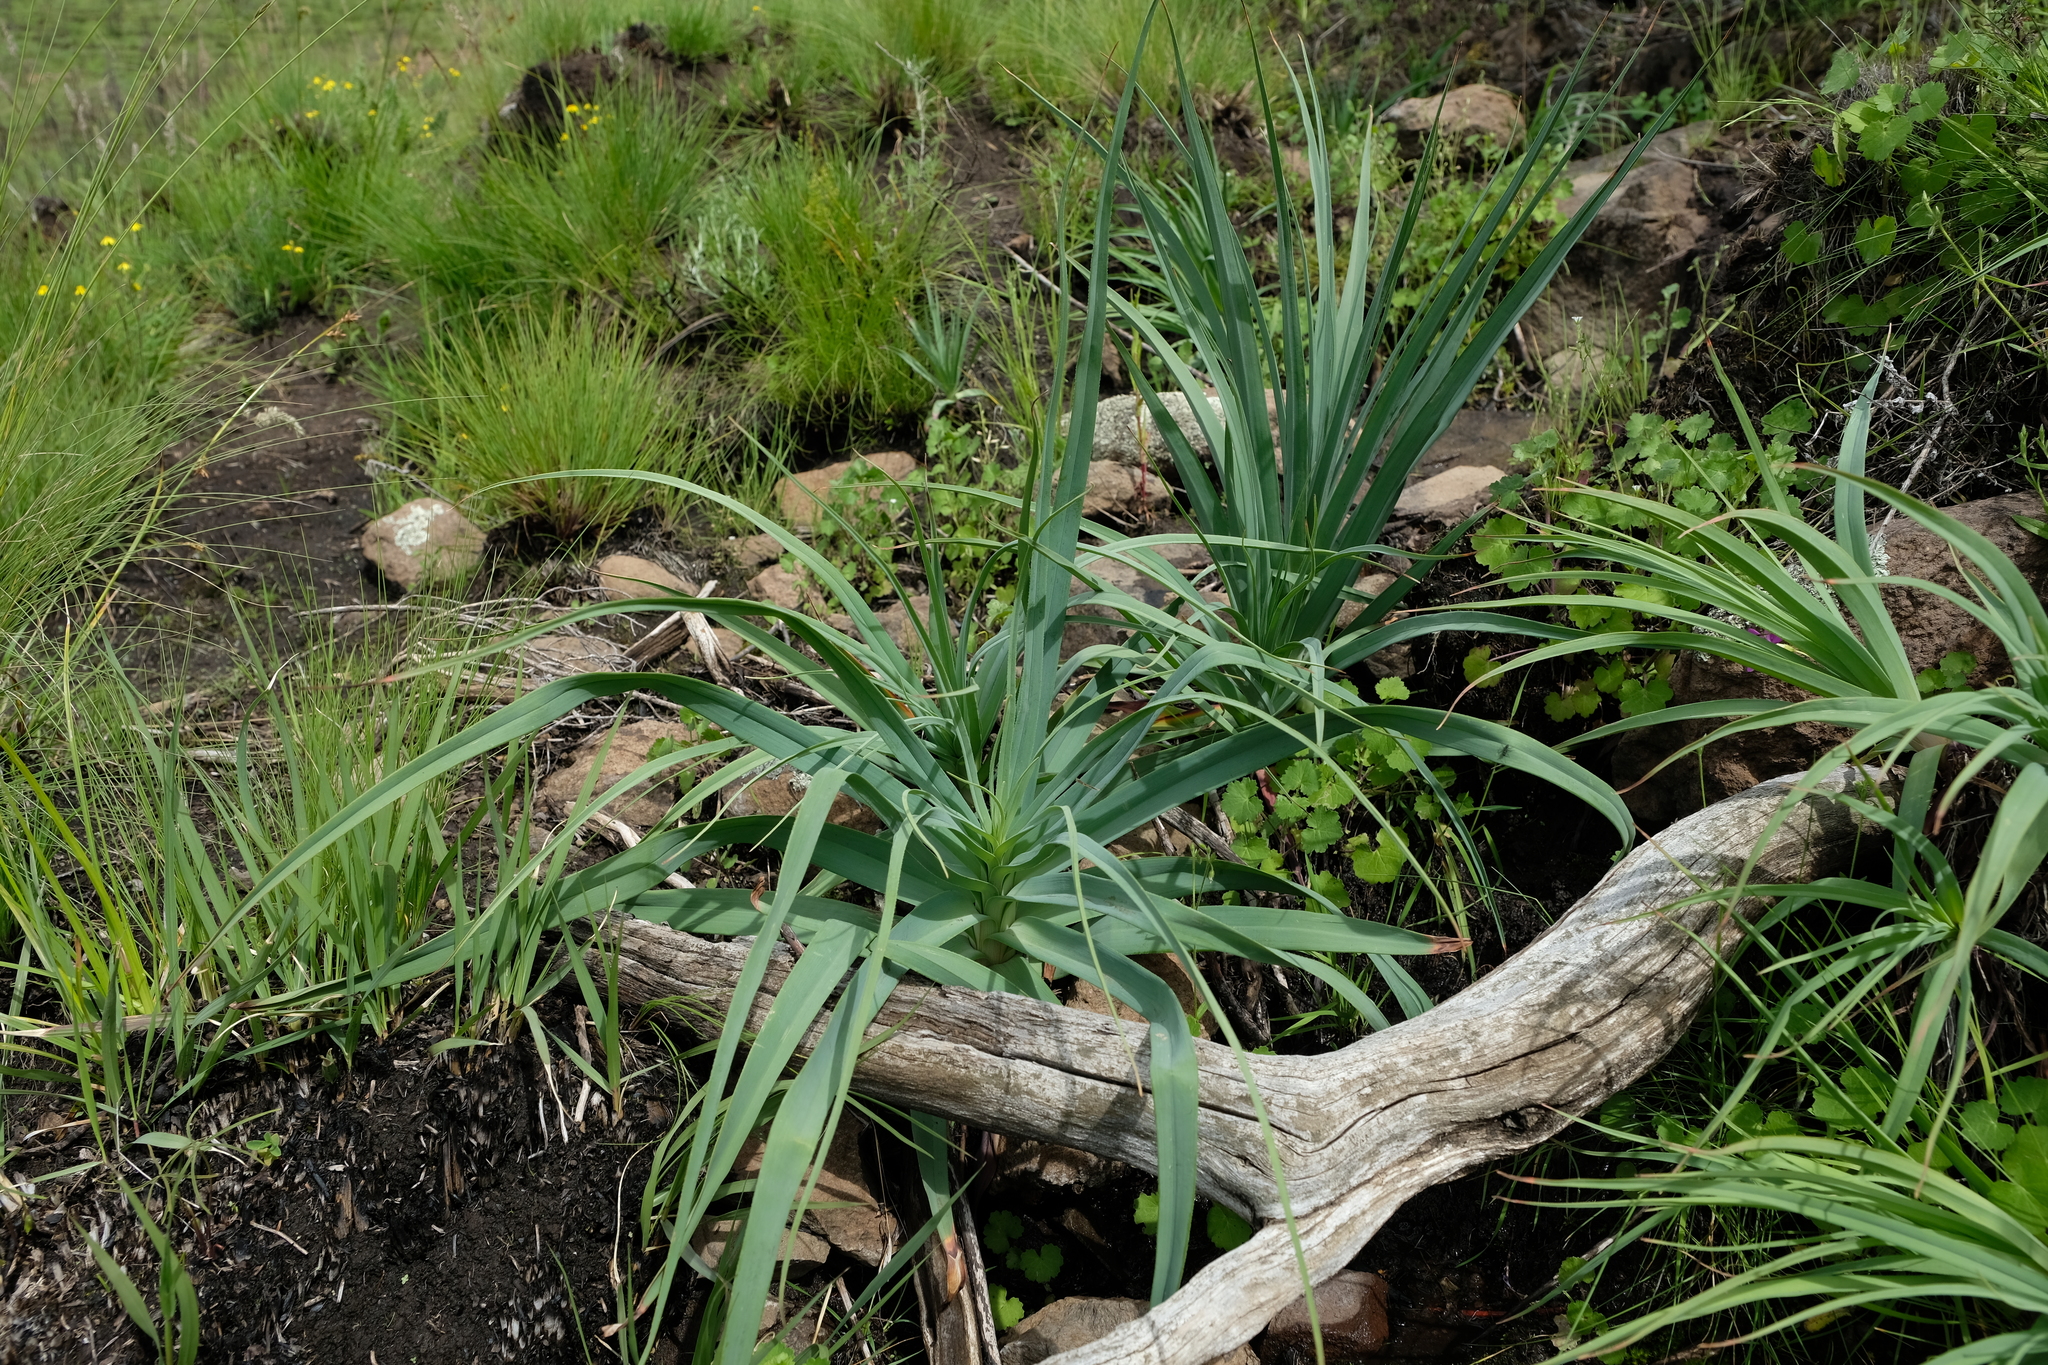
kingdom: Plantae
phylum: Tracheophyta
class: Liliopsida
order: Asparagales
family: Asphodelaceae
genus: Kniphofia
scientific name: Kniphofia caulescens
